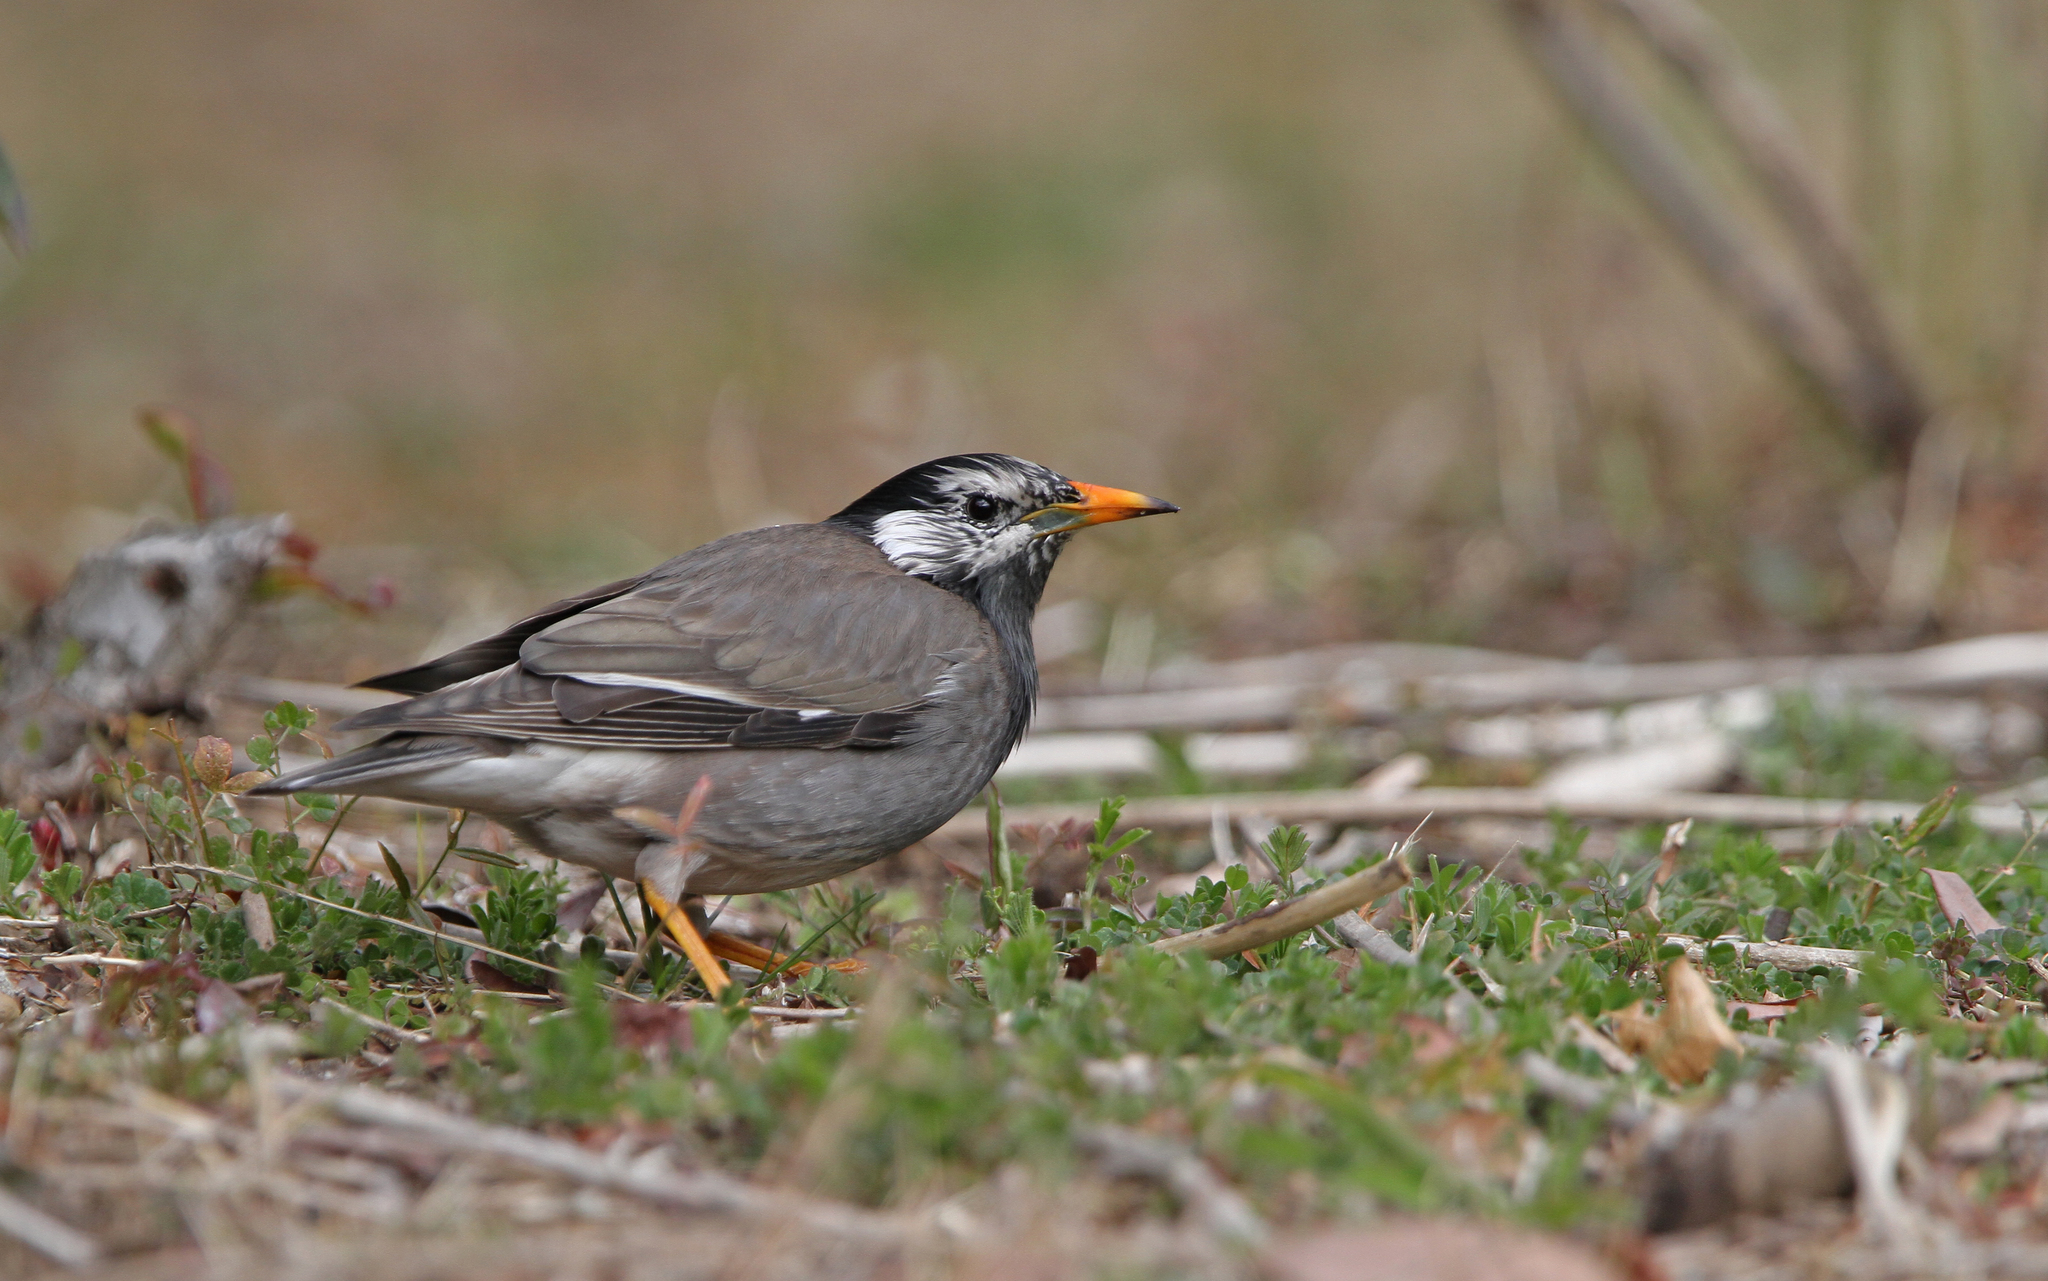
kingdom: Animalia
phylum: Chordata
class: Aves
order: Passeriformes
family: Sturnidae
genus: Spodiopsar
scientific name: Spodiopsar cineraceus
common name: White-cheeked starling
